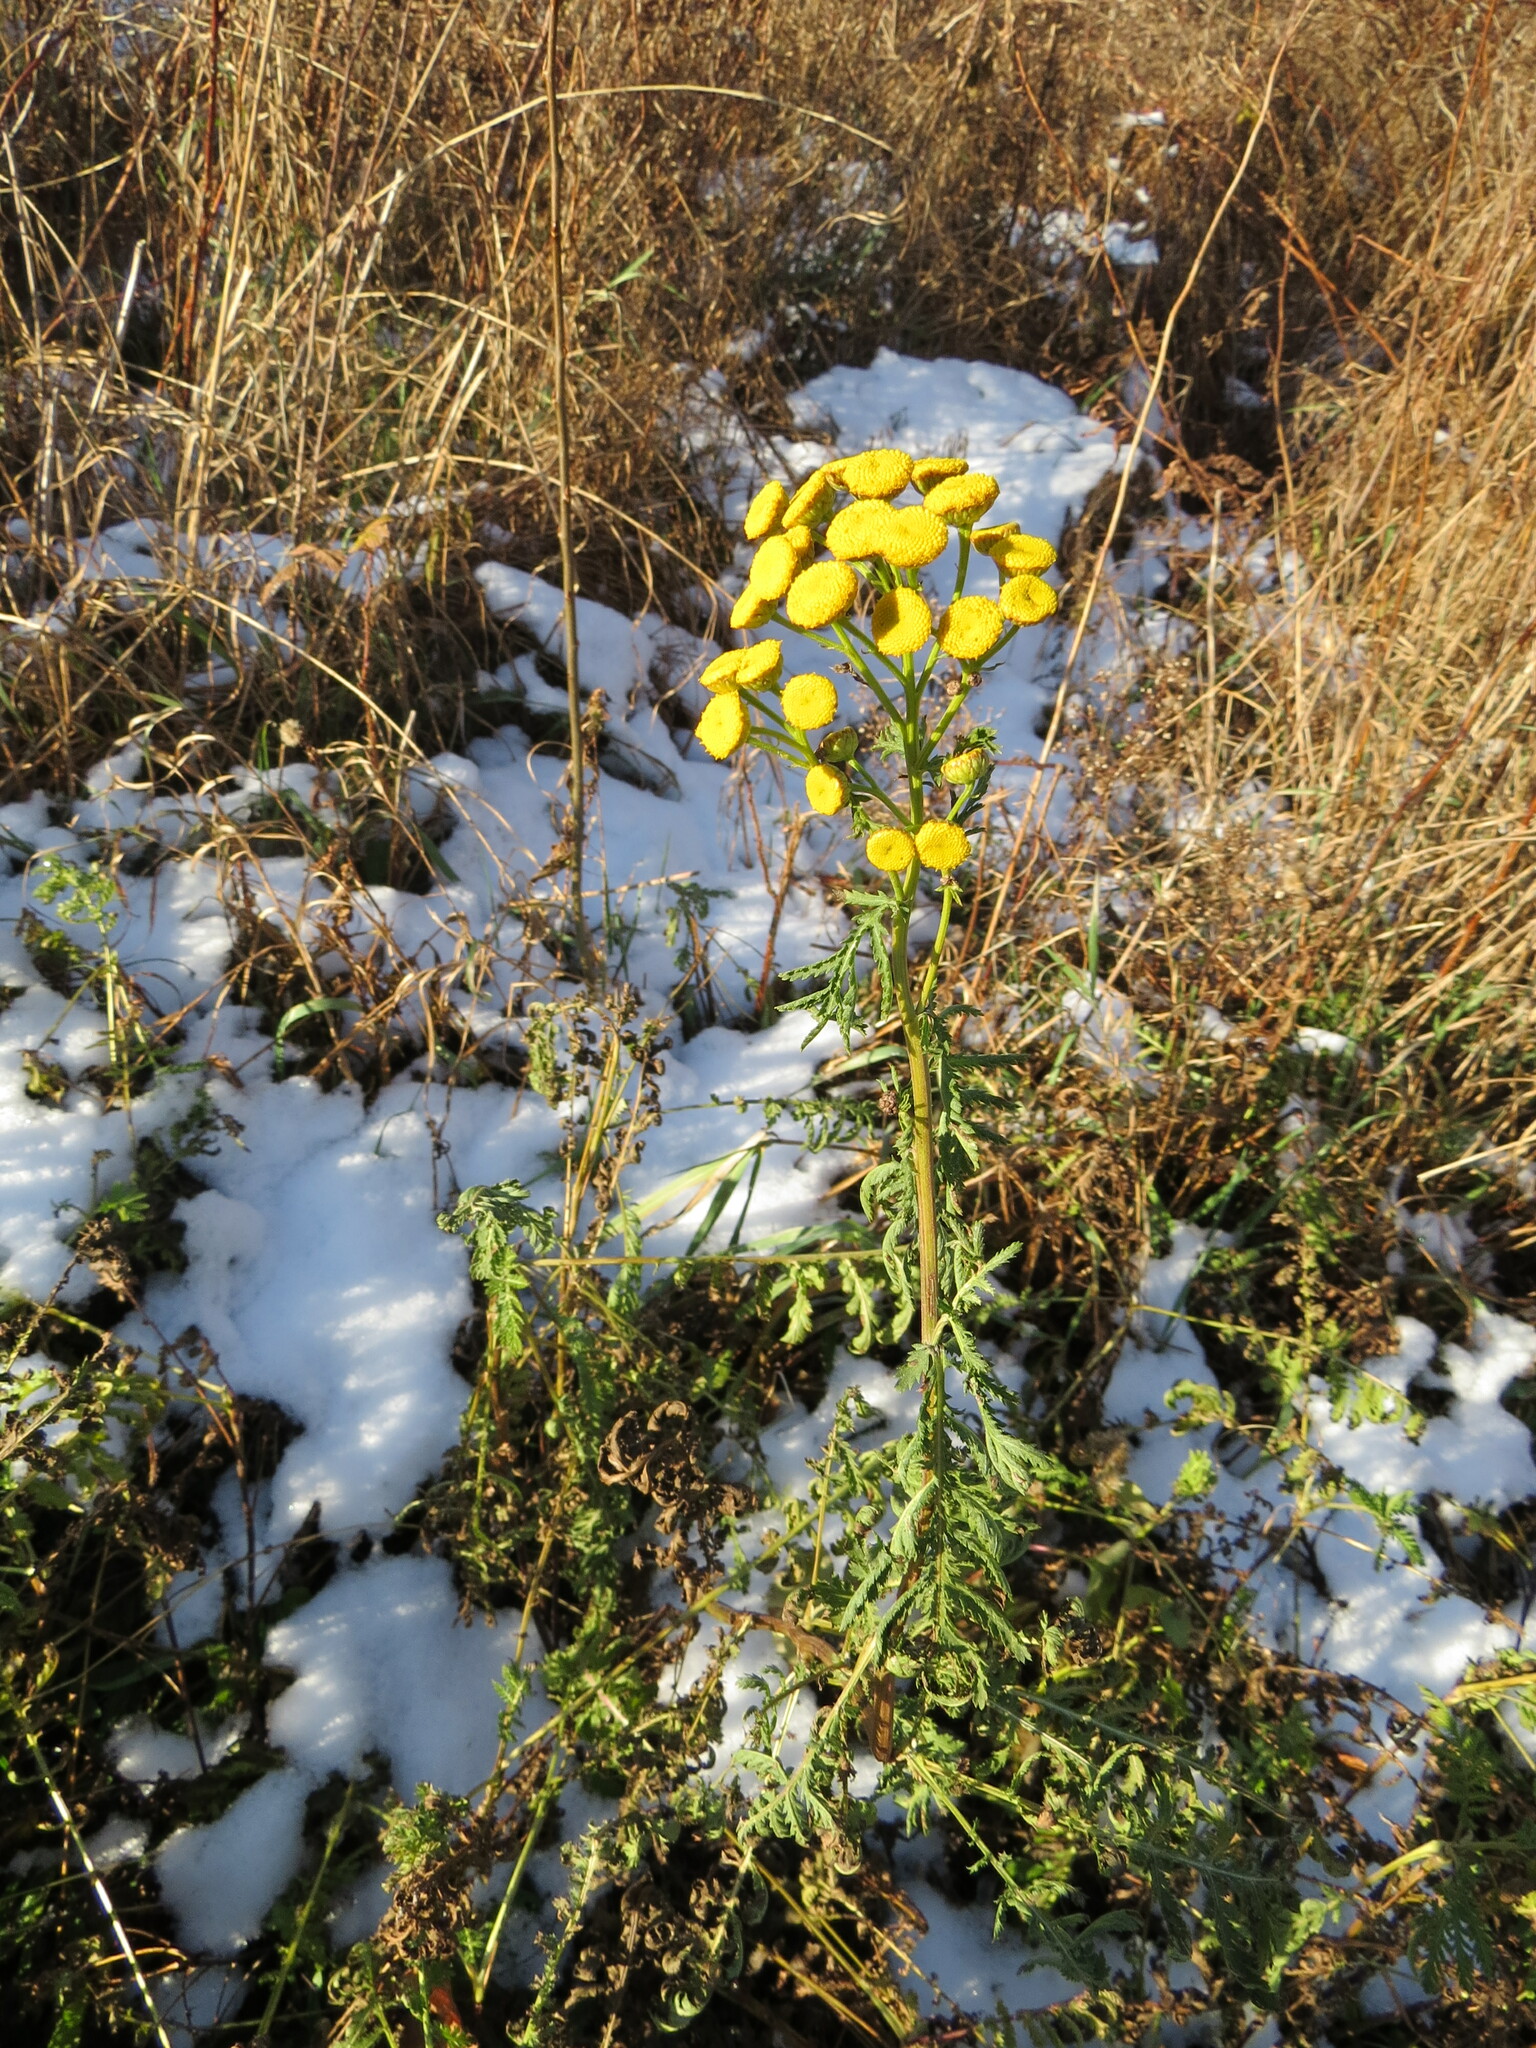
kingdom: Plantae
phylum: Tracheophyta
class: Magnoliopsida
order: Asterales
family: Asteraceae
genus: Tanacetum
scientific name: Tanacetum vulgare
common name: Common tansy
